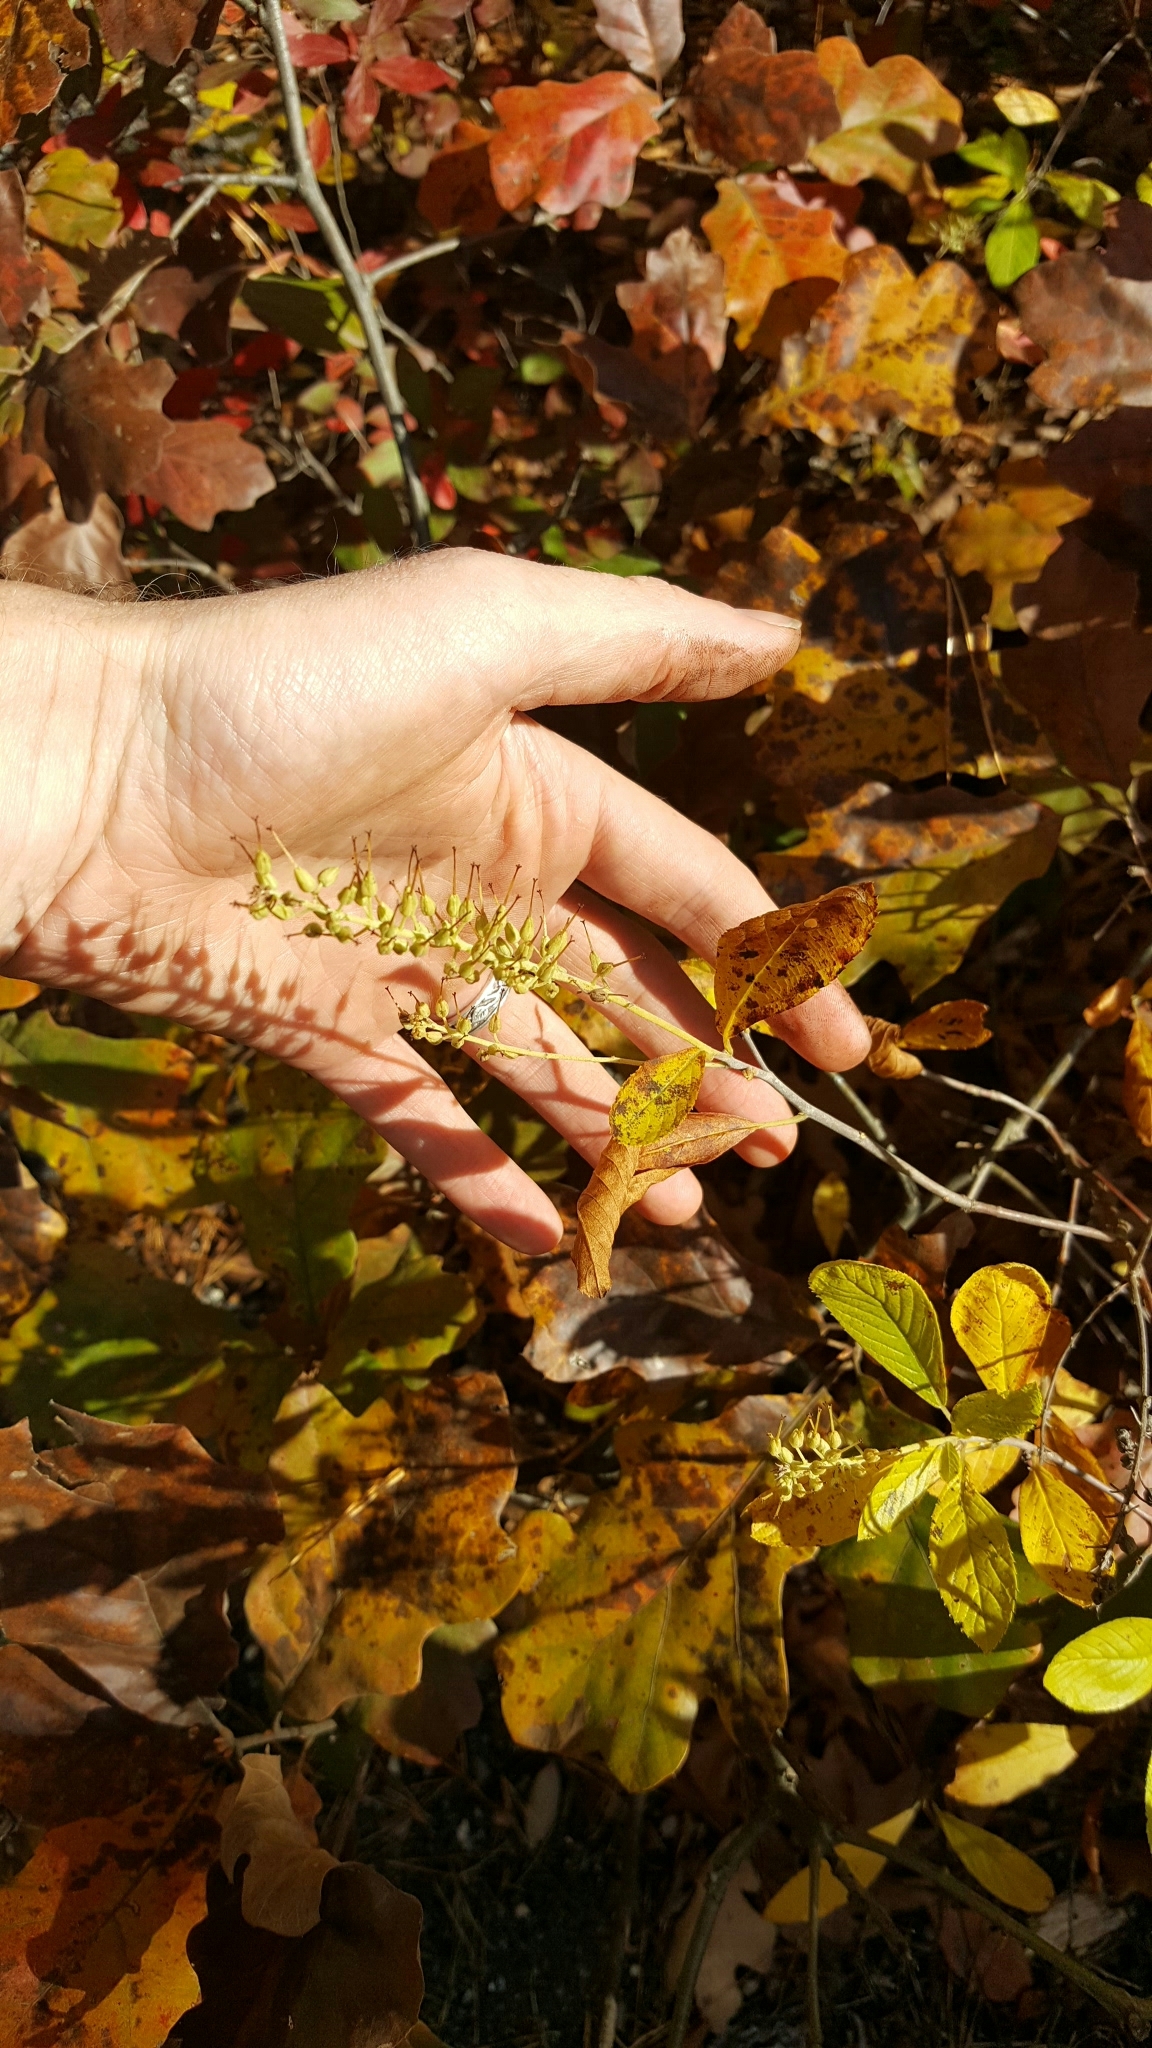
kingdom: Plantae
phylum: Tracheophyta
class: Magnoliopsida
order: Ericales
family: Clethraceae
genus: Clethra
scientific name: Clethra alnifolia
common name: Sweet pepperbush
